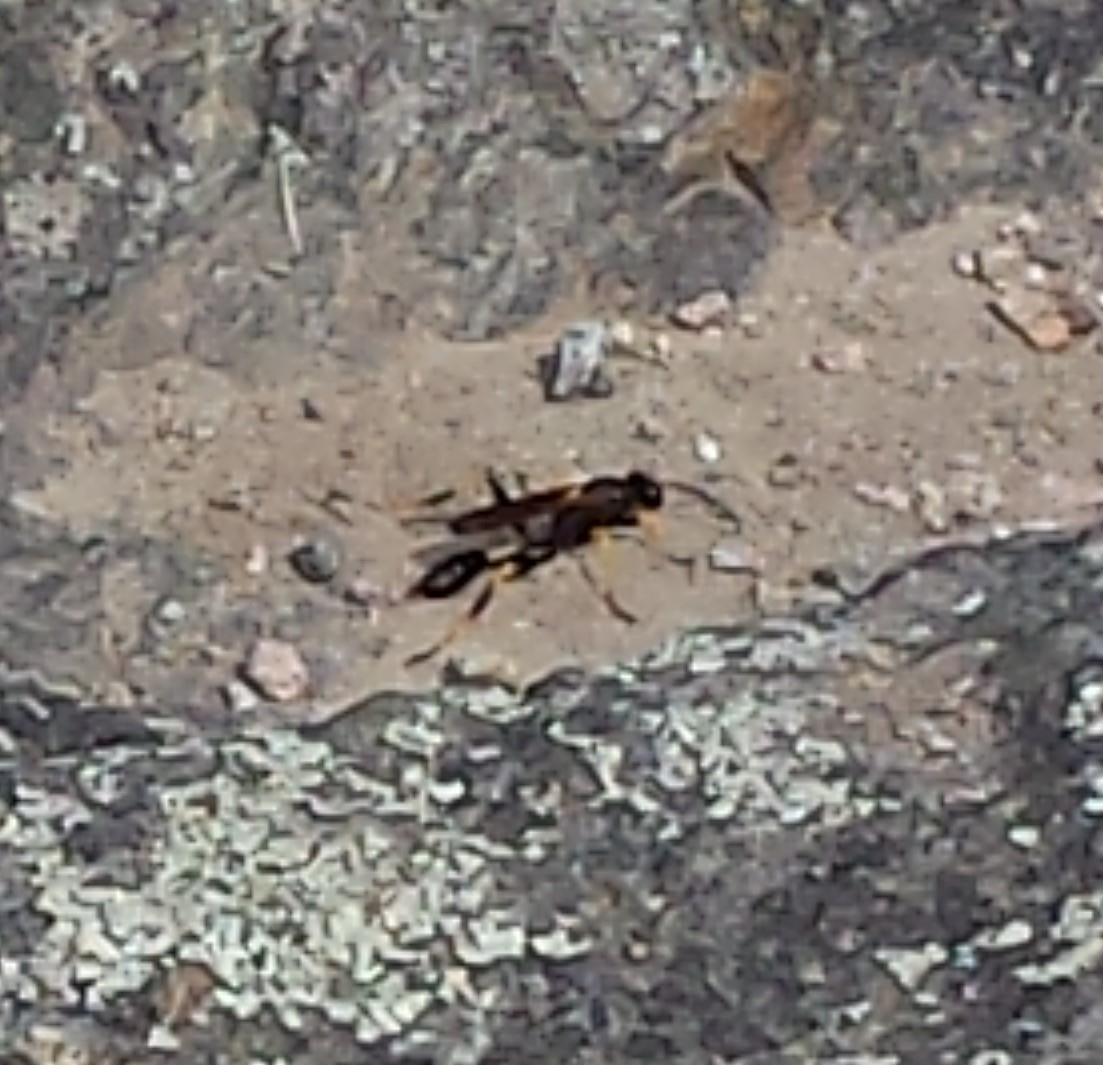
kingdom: Animalia
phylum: Arthropoda
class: Insecta
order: Hymenoptera
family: Sphecidae
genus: Sceliphron
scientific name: Sceliphron caementarium
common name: Mud dauber
